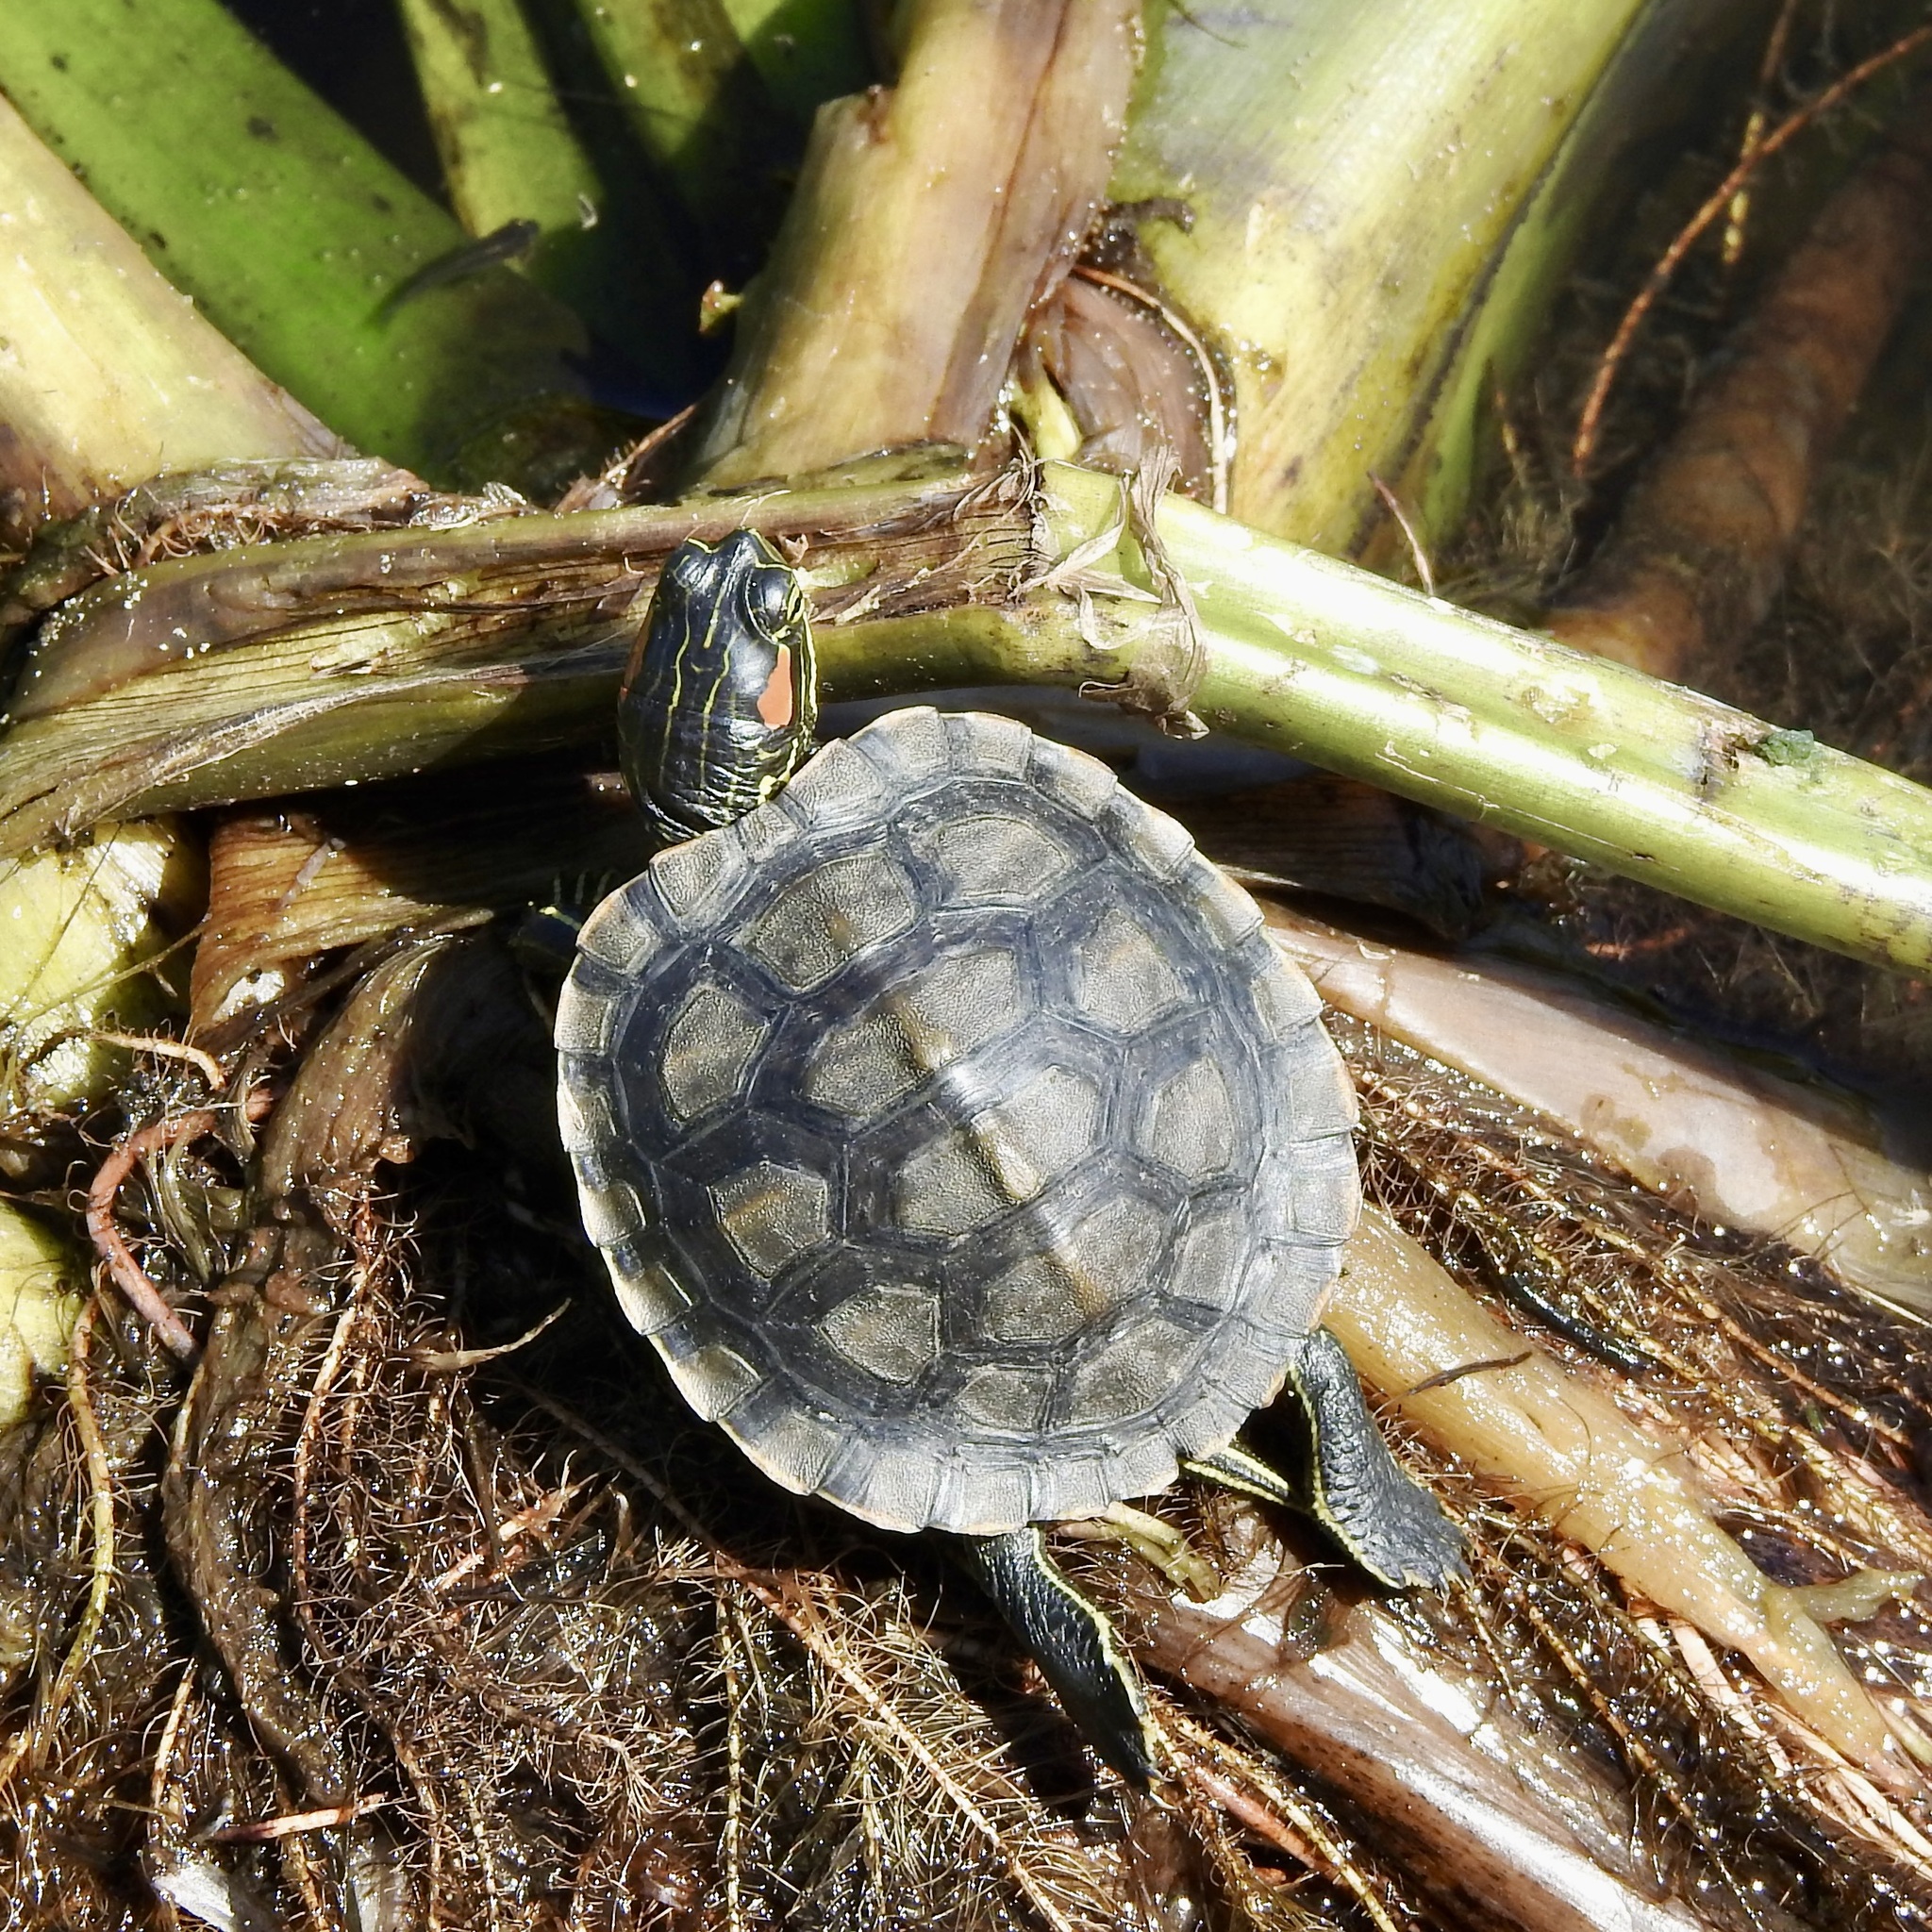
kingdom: Animalia
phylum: Chordata
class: Testudines
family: Emydidae
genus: Trachemys
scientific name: Trachemys scripta
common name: Slider
